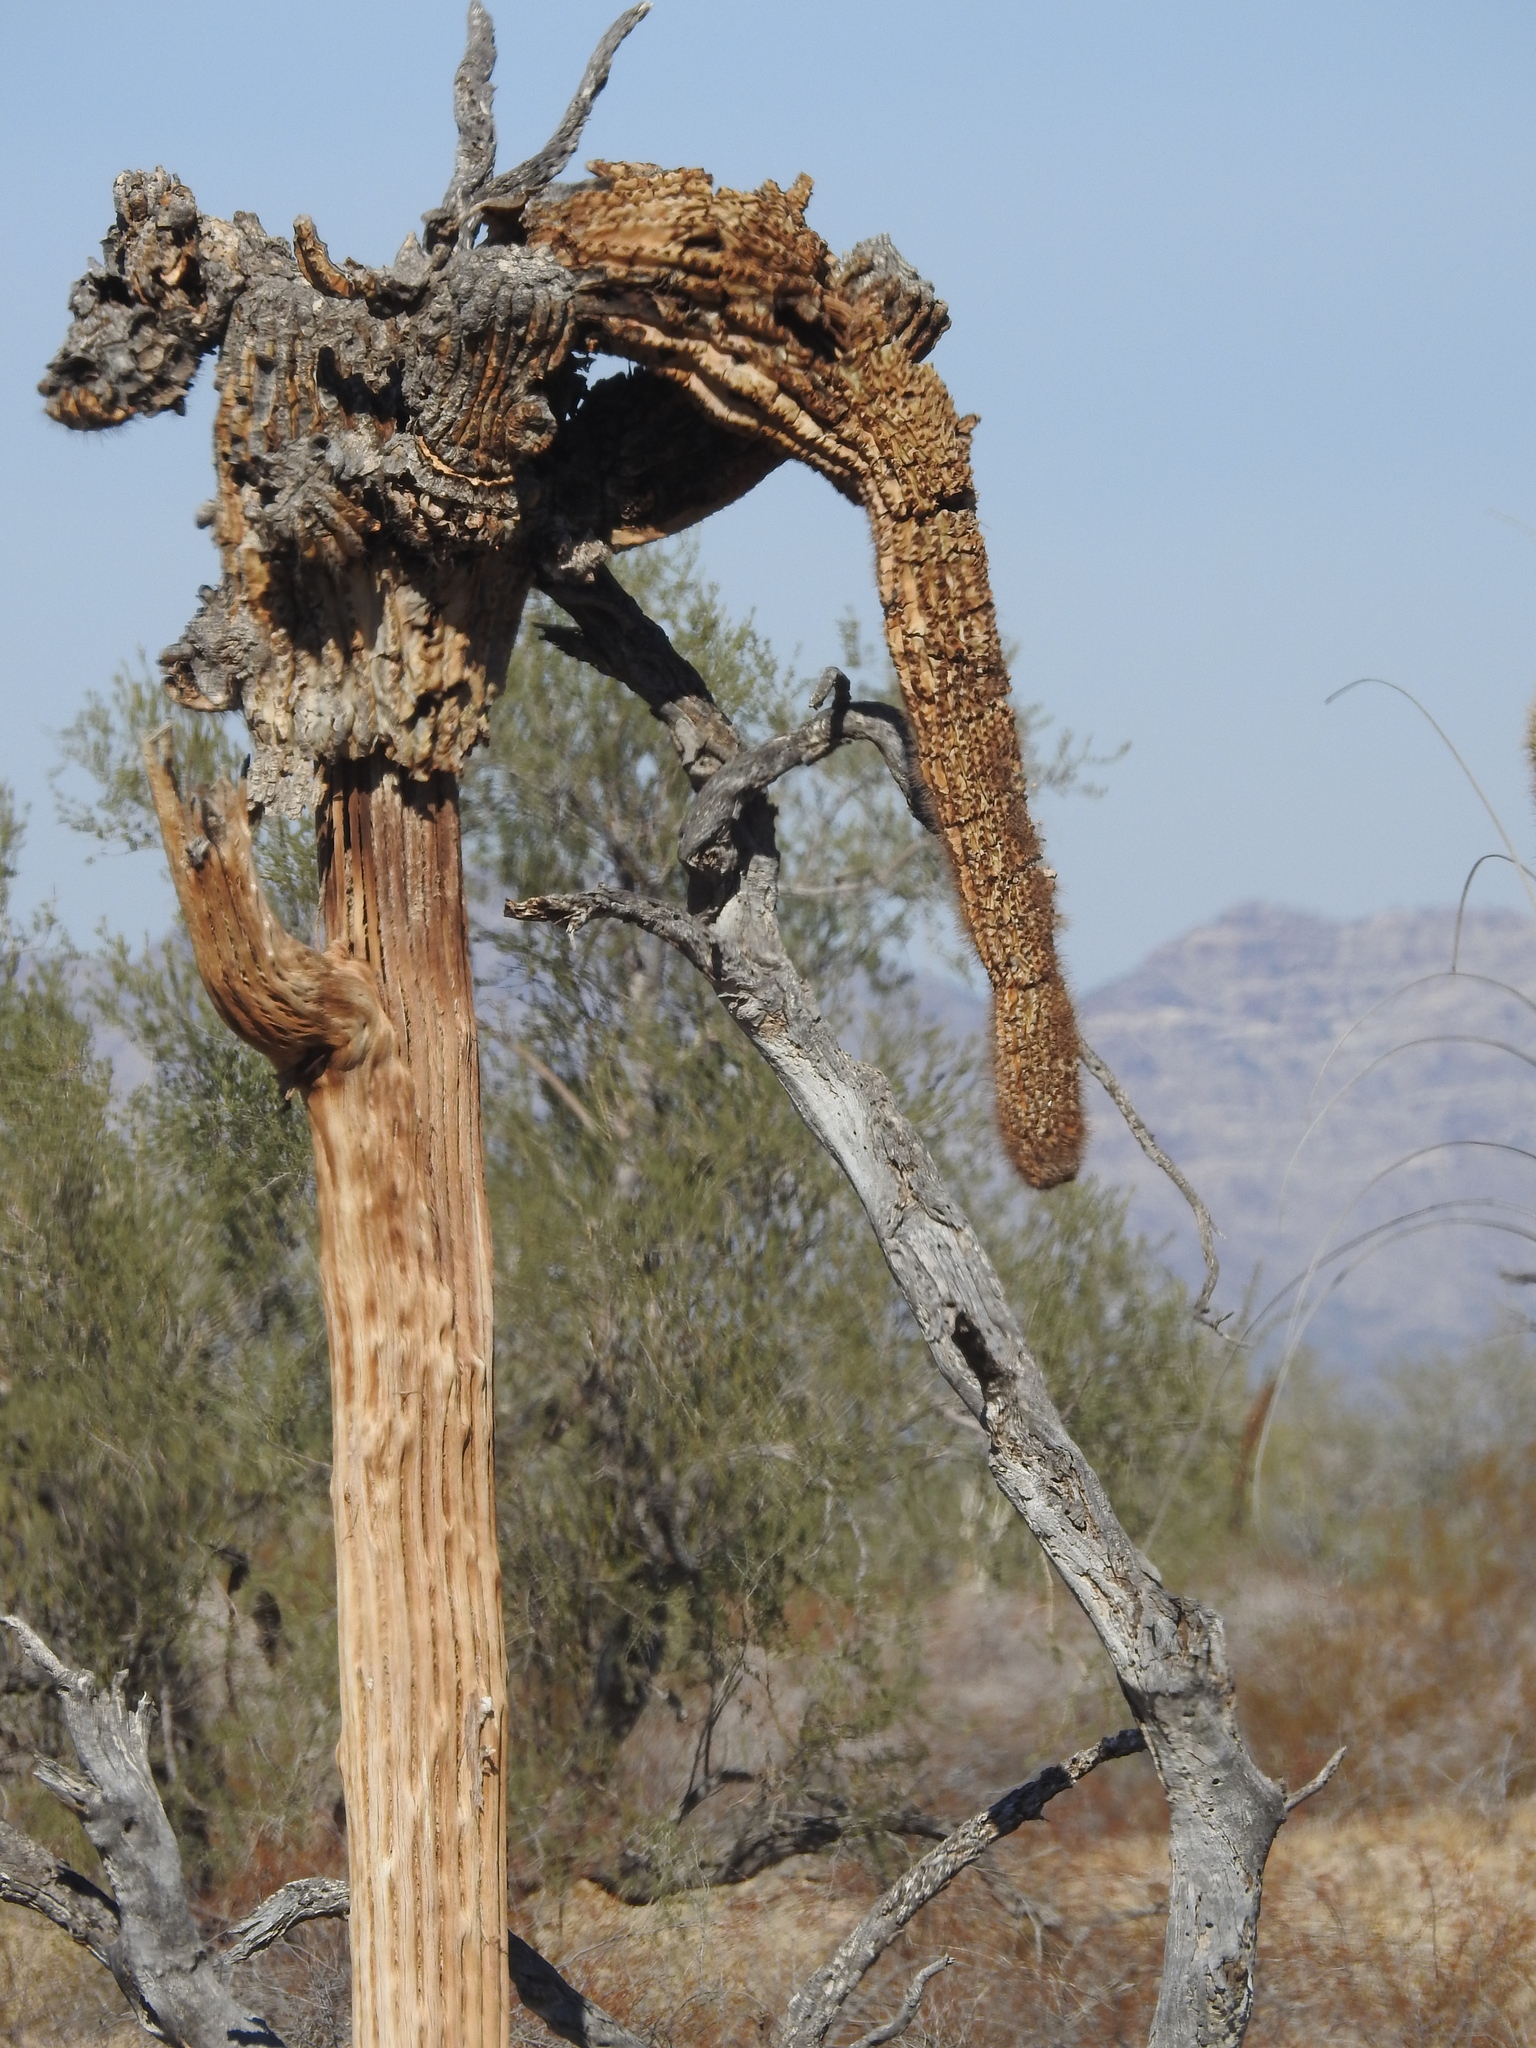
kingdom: Plantae
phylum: Tracheophyta
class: Magnoliopsida
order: Caryophyllales
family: Cactaceae
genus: Carnegiea
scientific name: Carnegiea gigantea
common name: Saguaro
